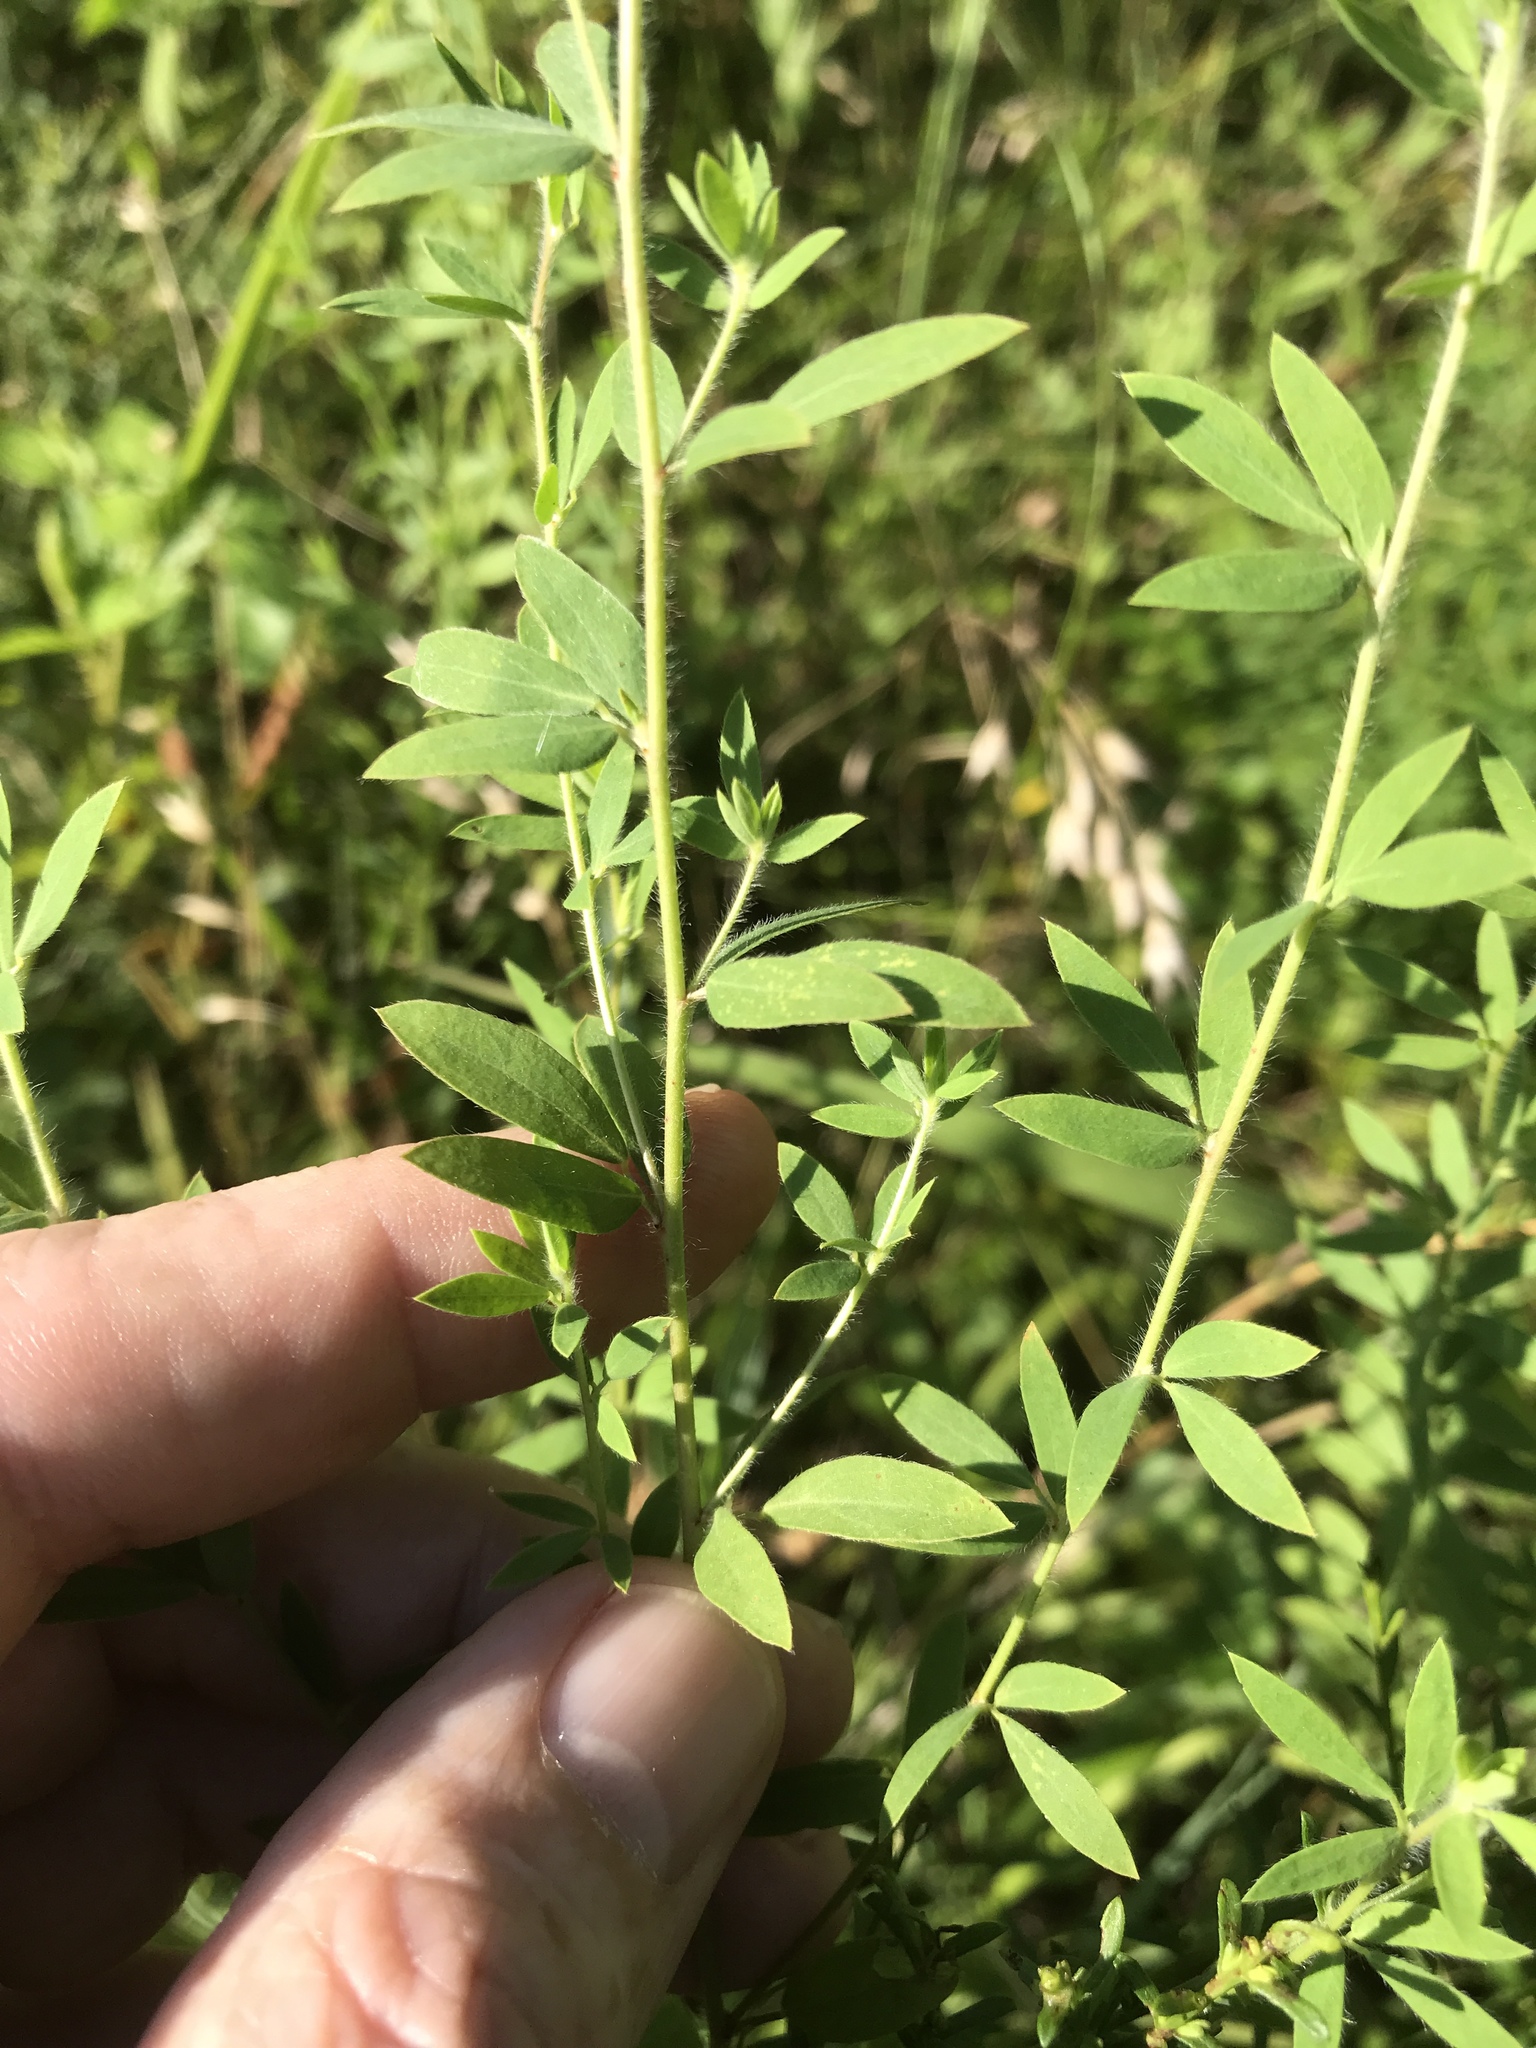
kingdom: Plantae
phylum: Tracheophyta
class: Magnoliopsida
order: Fabales
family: Fabaceae
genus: Acmispon
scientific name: Acmispon americanus
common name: American bird's-foot trefoil
